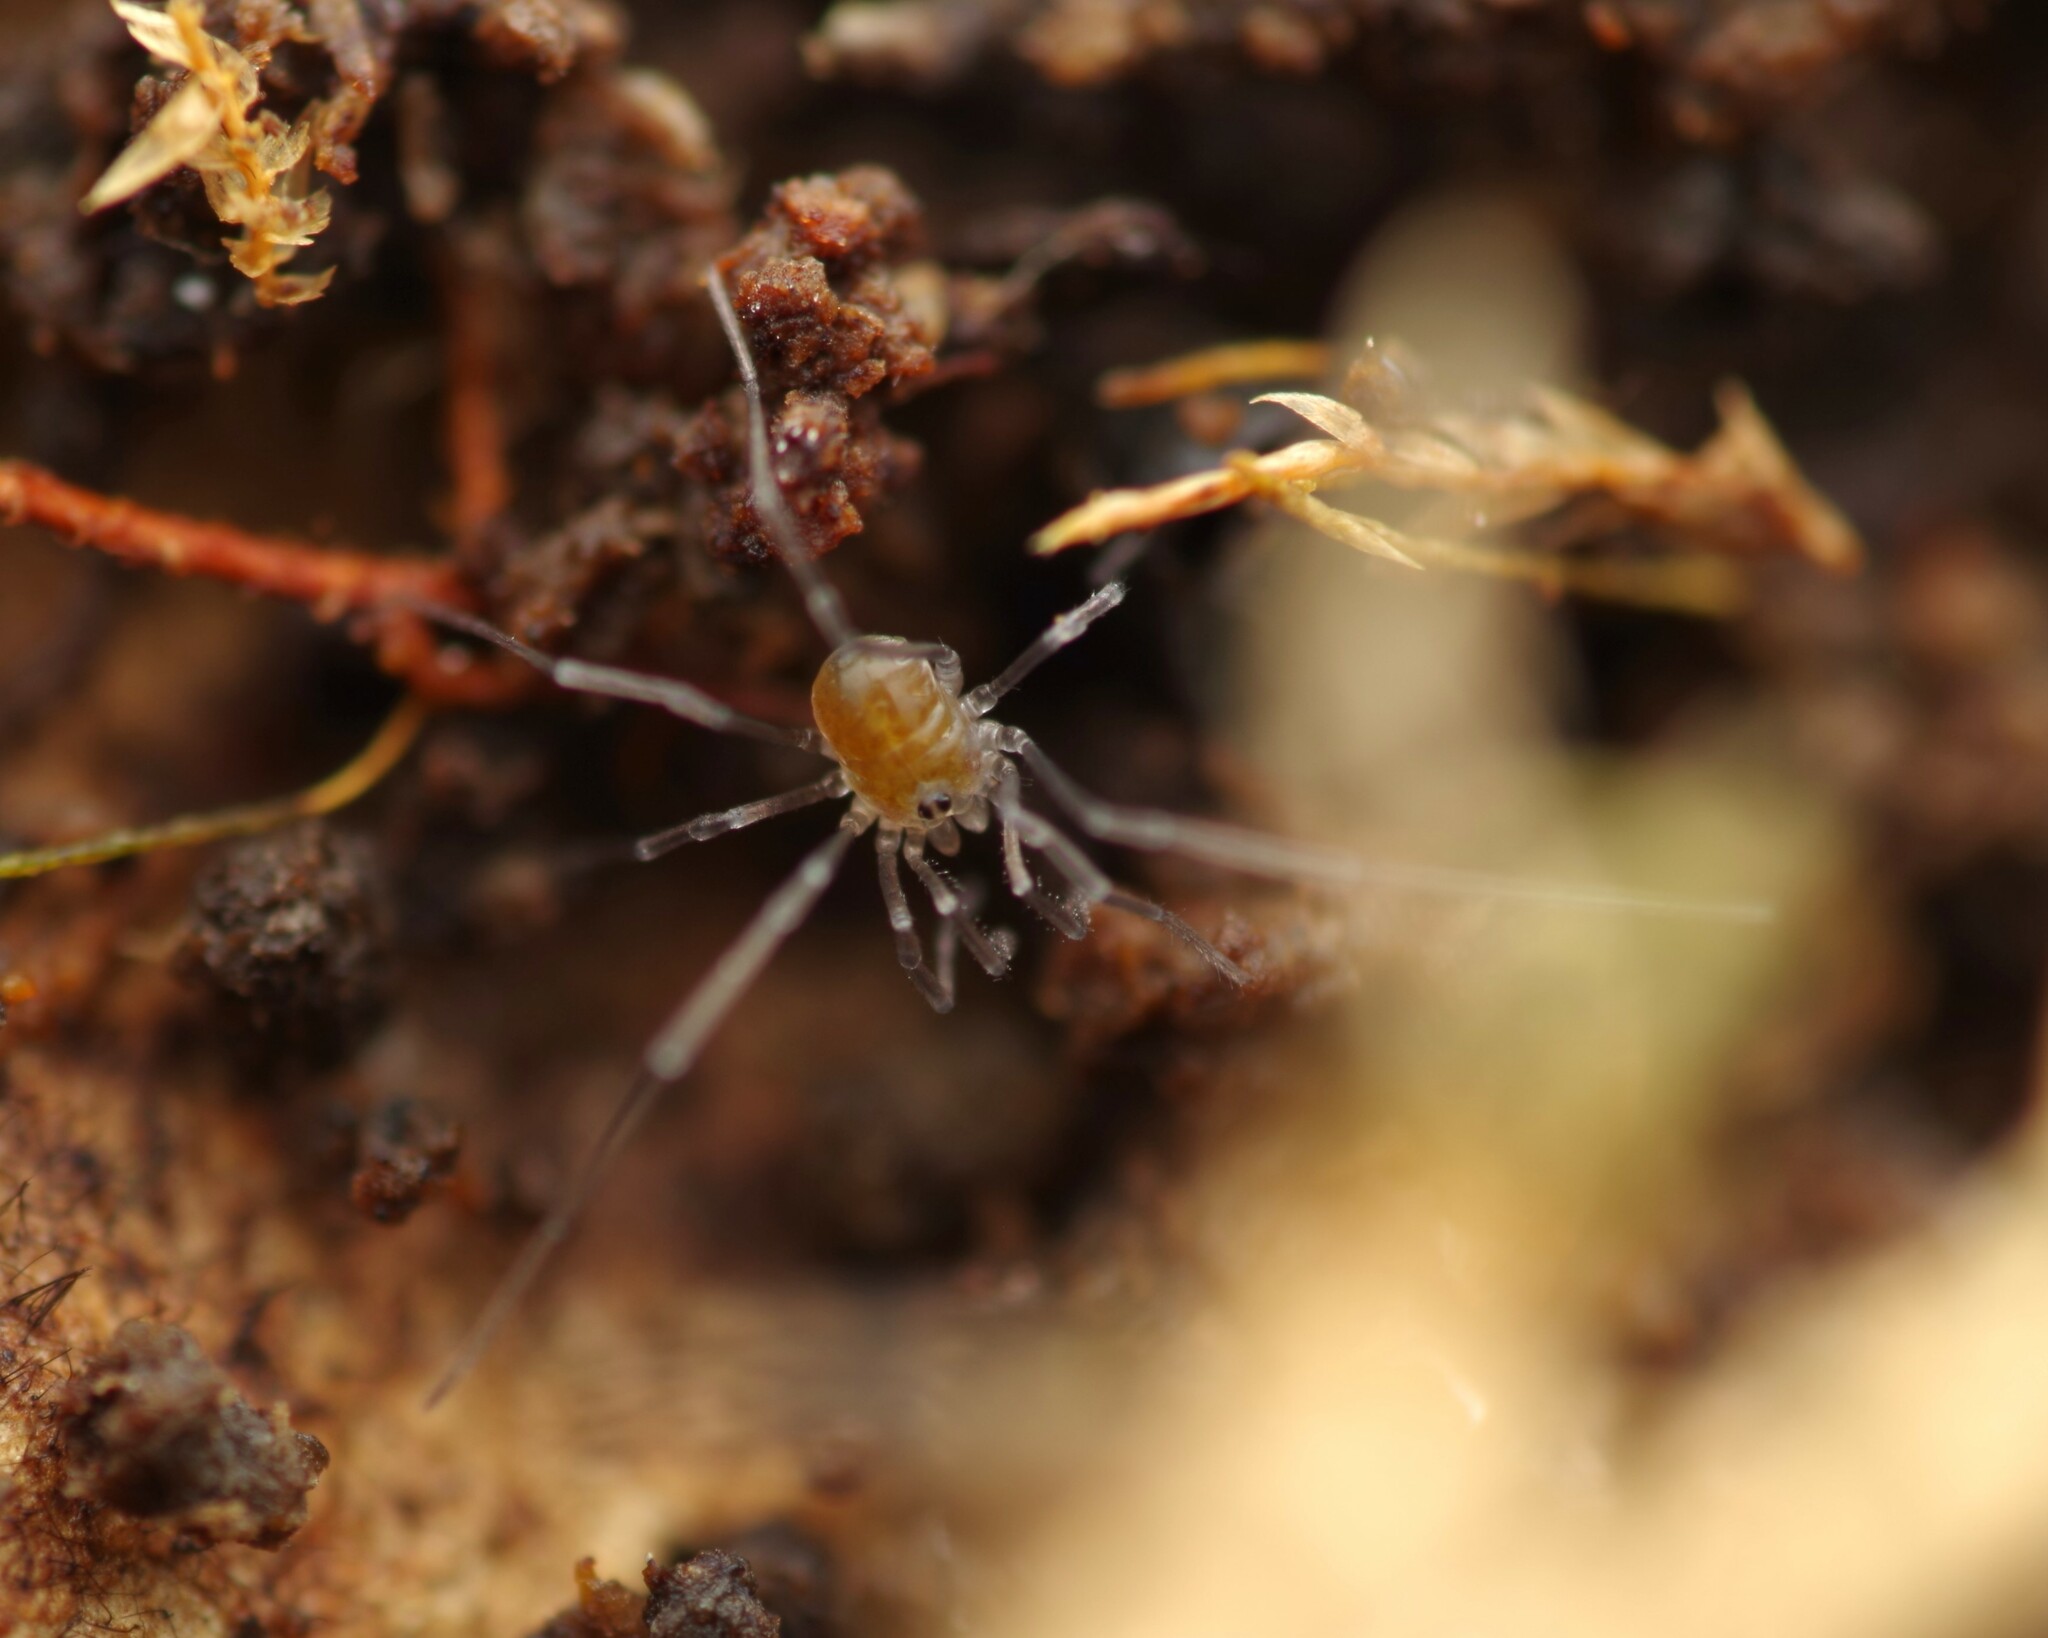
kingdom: Animalia
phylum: Arthropoda
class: Arachnida
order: Opiliones
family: Nemastomatidae
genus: Mitostoma
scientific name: Mitostoma chrysomelas
